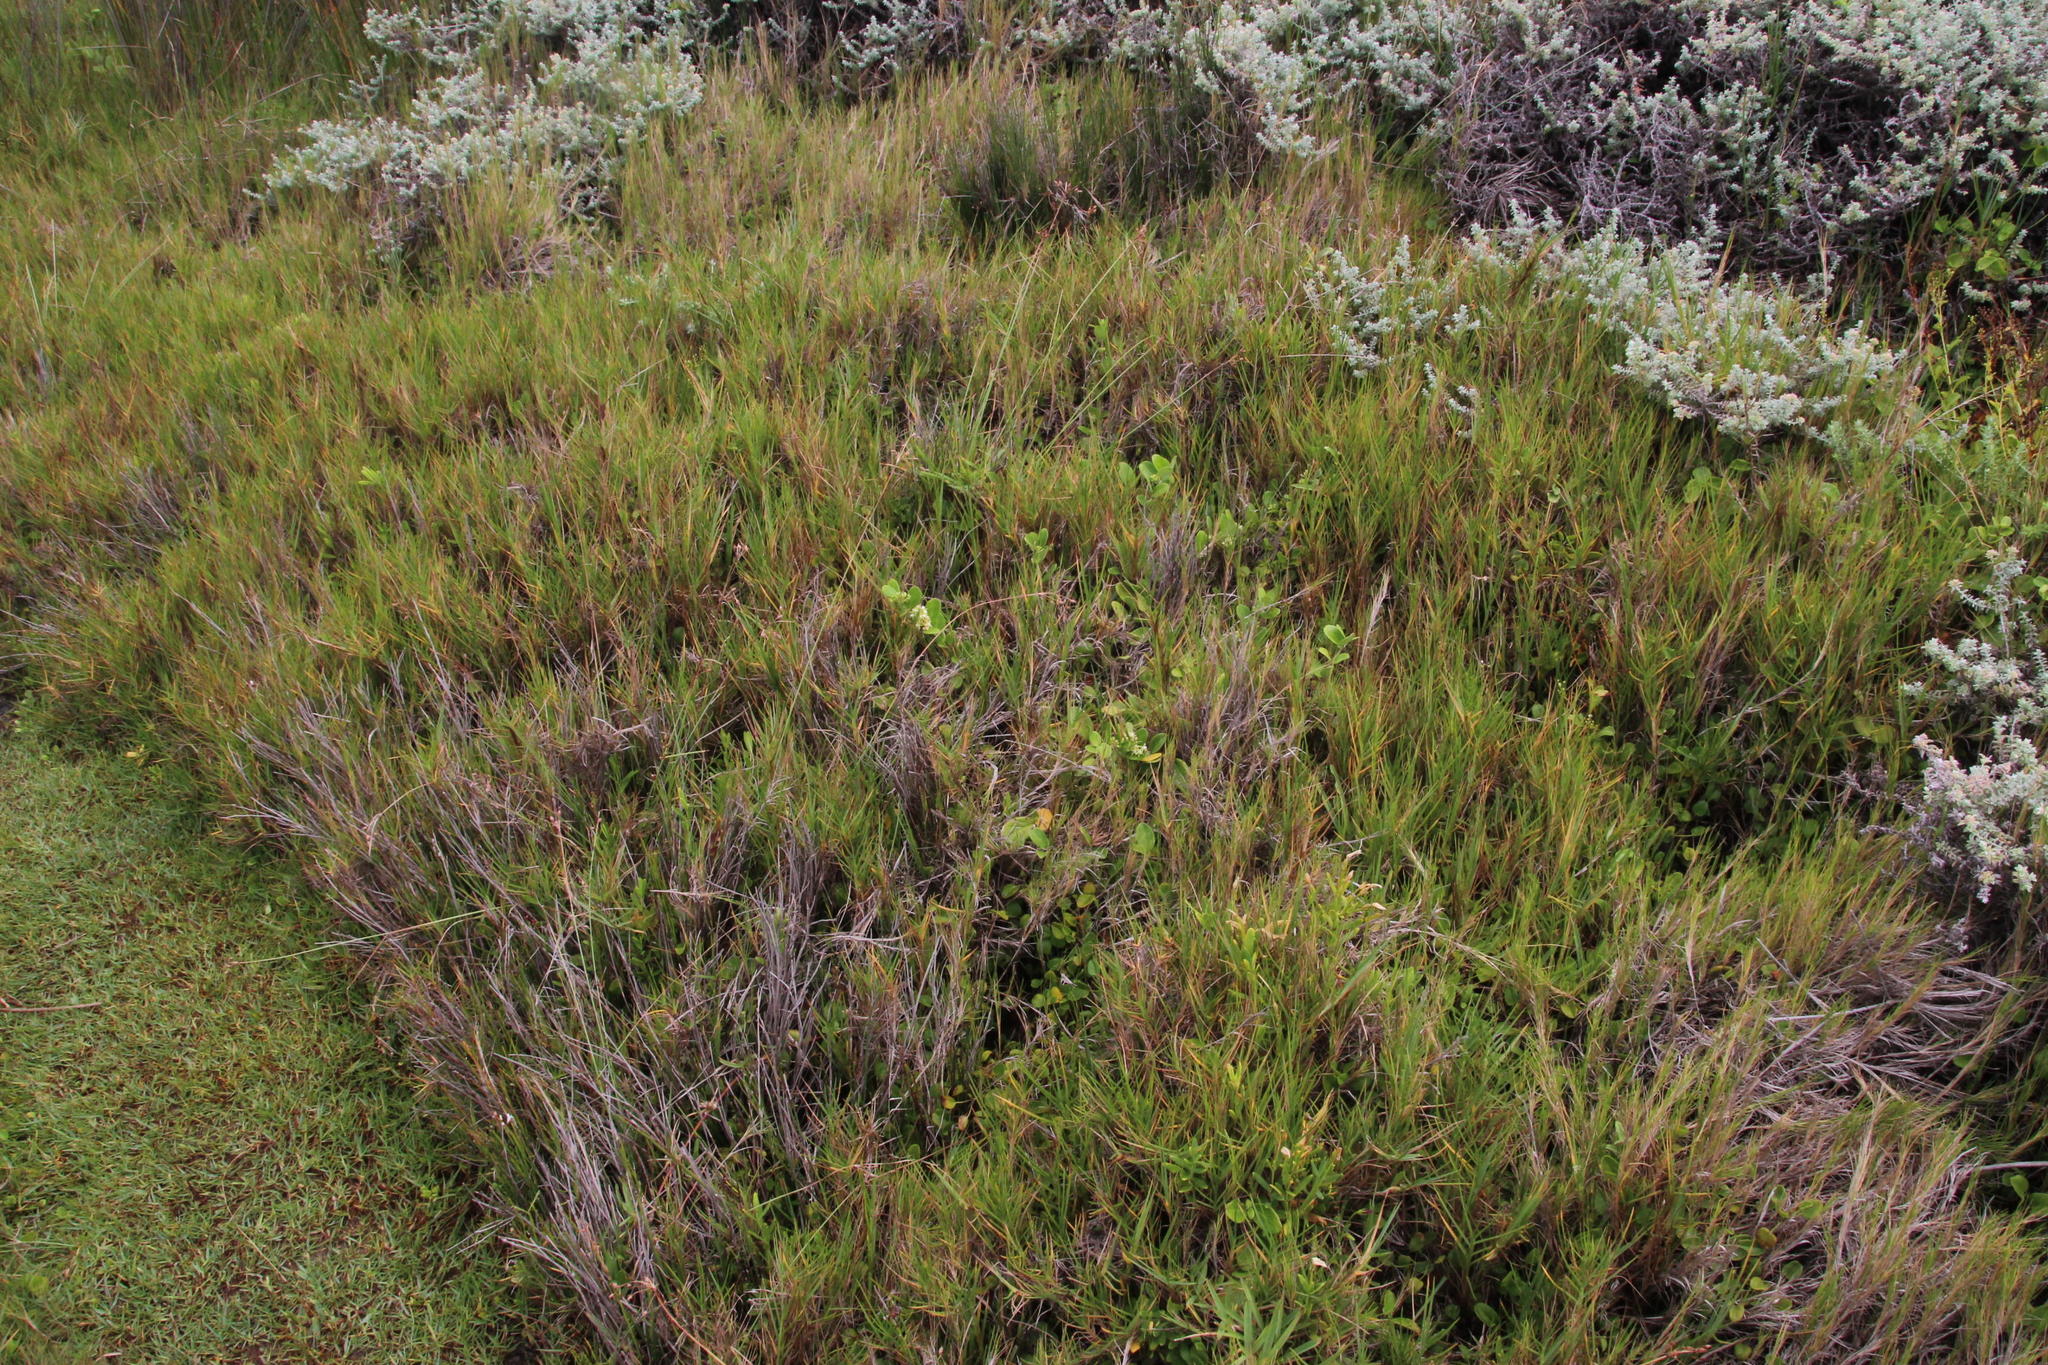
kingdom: Plantae
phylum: Tracheophyta
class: Magnoliopsida
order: Gentianales
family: Apocynaceae
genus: Cynanchum
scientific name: Cynanchum natalitium
